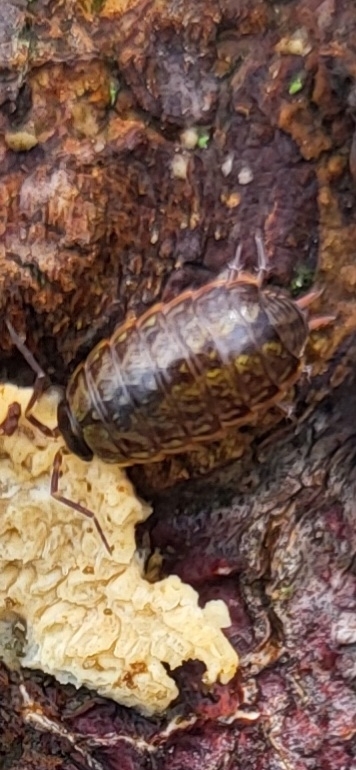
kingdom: Animalia
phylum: Arthropoda
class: Malacostraca
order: Isopoda
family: Philosciidae
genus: Philoscia
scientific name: Philoscia muscorum
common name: Common striped woodlouse
